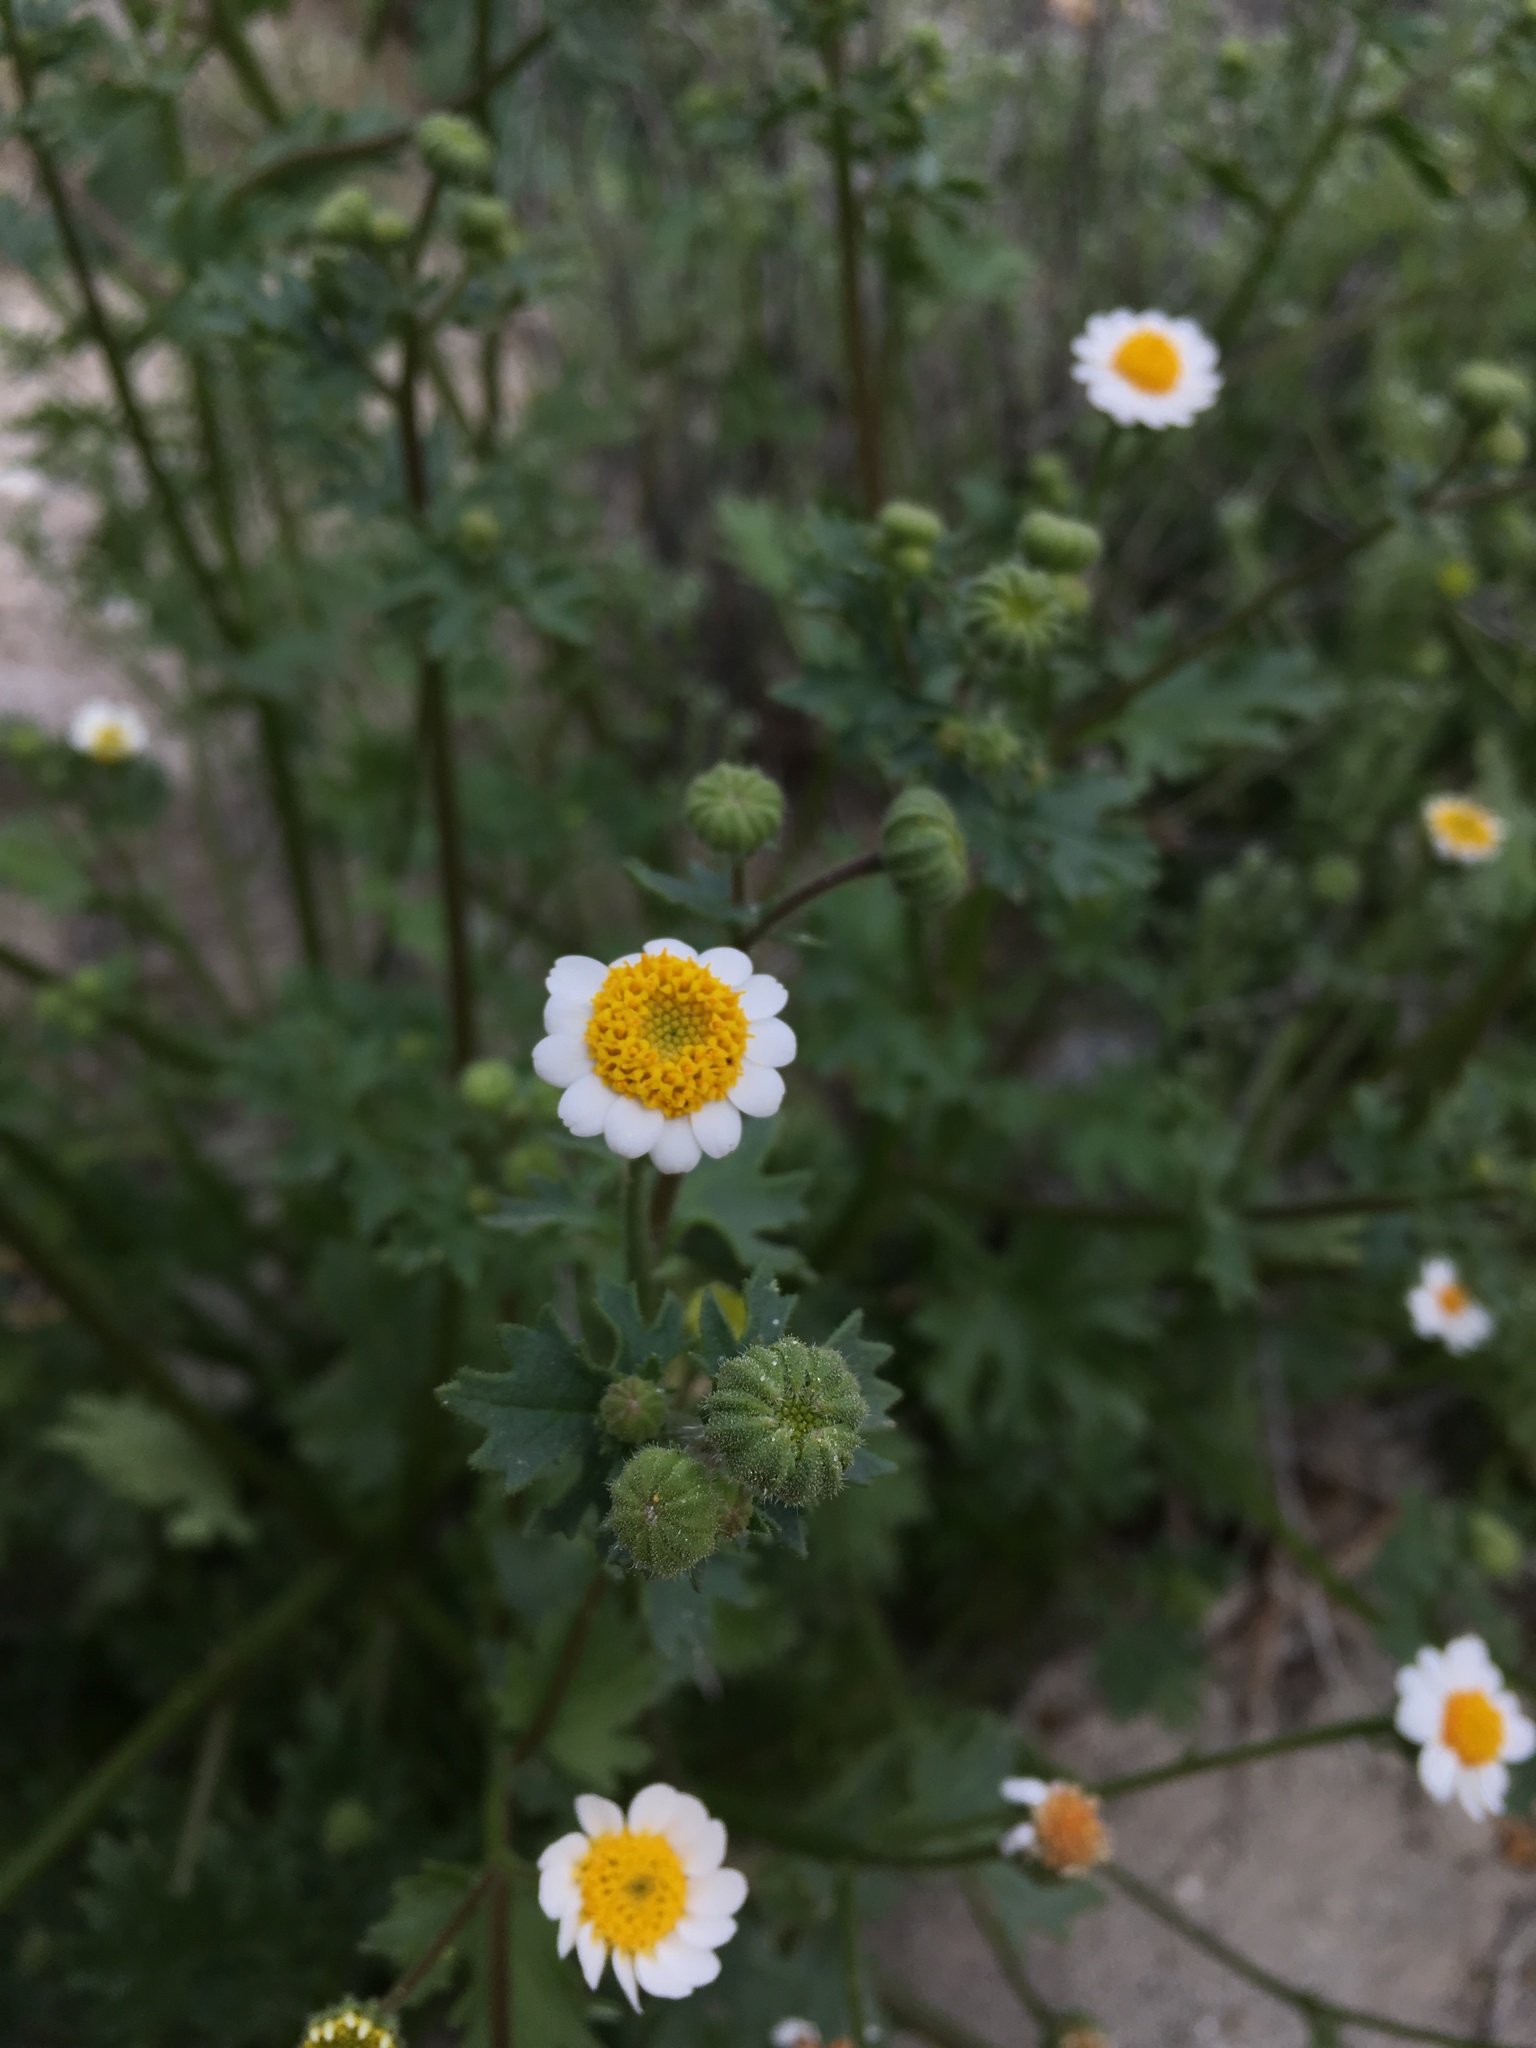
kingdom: Plantae
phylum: Tracheophyta
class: Magnoliopsida
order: Asterales
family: Asteraceae
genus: Laphamia
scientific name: Laphamia emoryi
